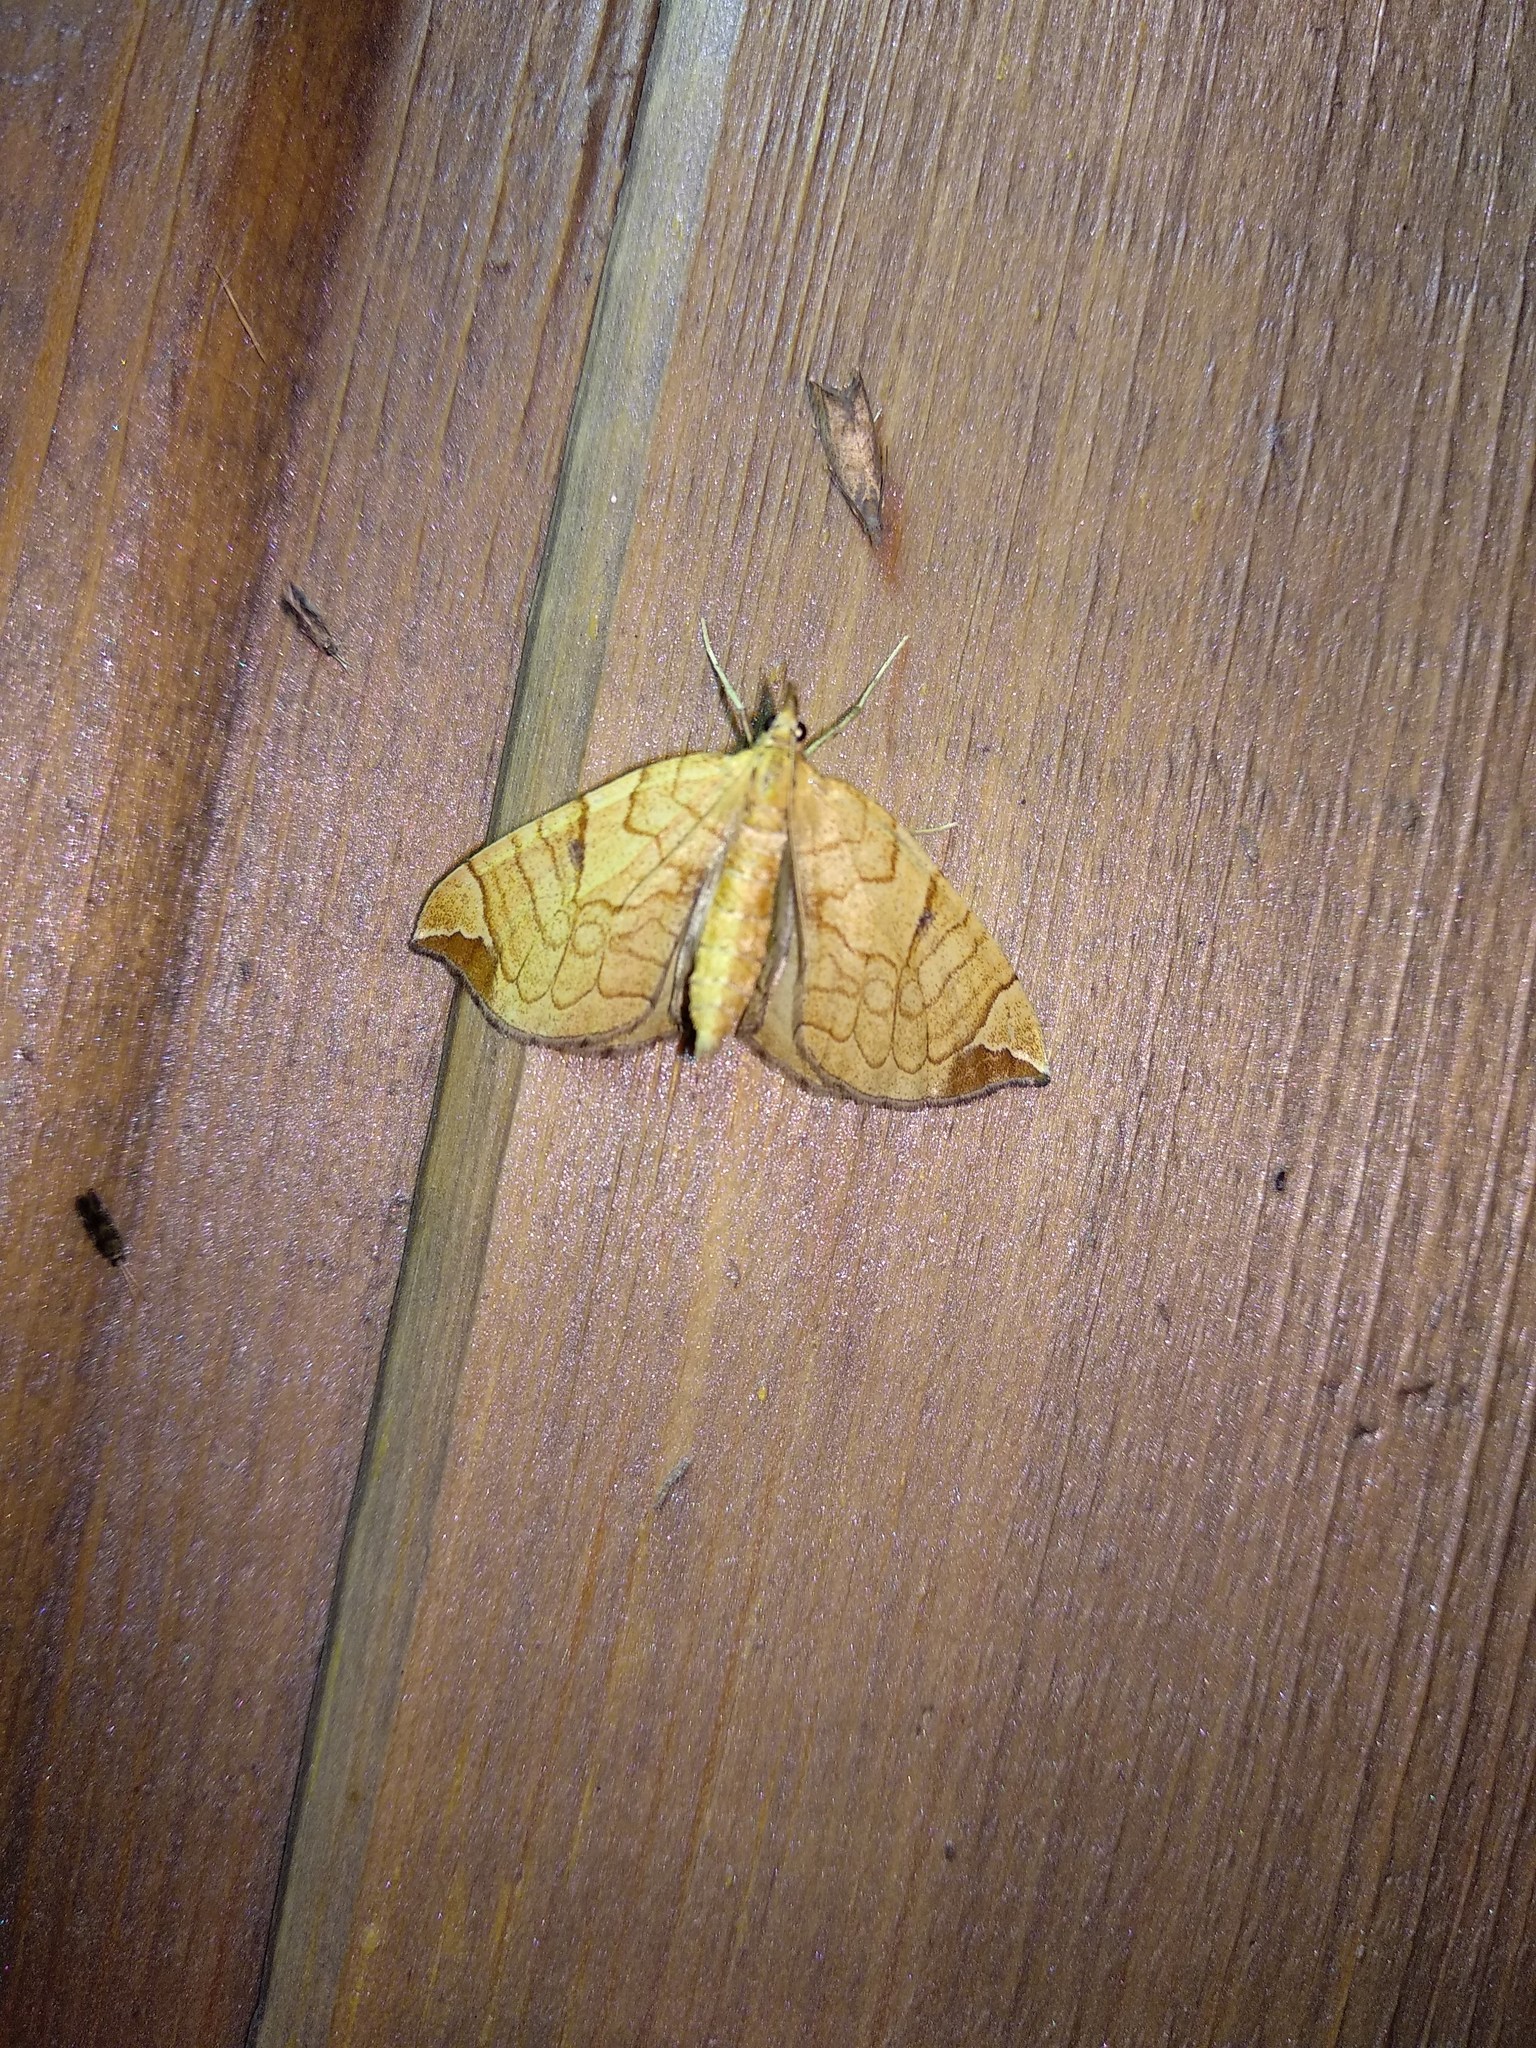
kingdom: Animalia
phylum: Arthropoda
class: Insecta
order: Lepidoptera
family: Geometridae
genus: Eulithis
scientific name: Eulithis achatinellaria
